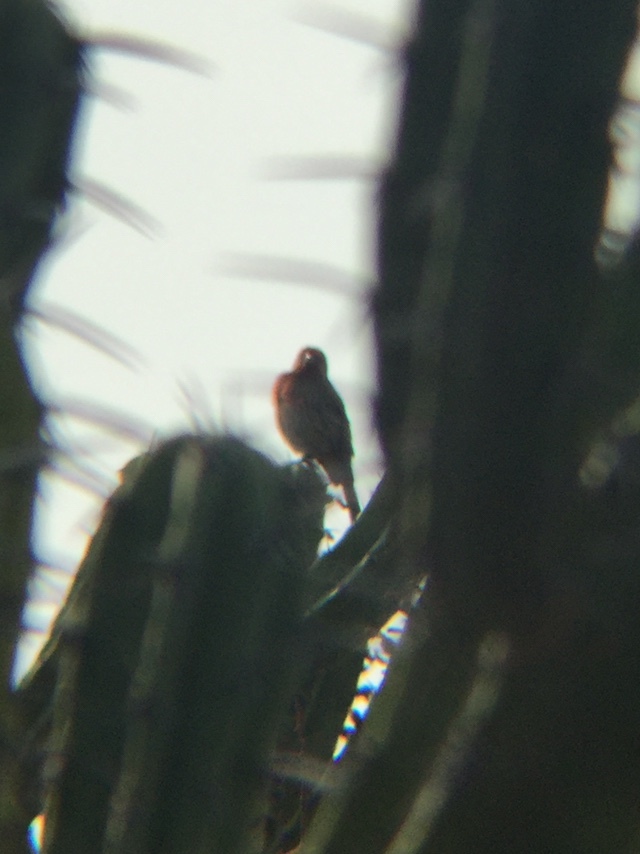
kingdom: Animalia
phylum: Chordata
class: Aves
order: Passeriformes
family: Fringillidae
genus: Haemorhous
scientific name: Haemorhous mexicanus
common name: House finch
